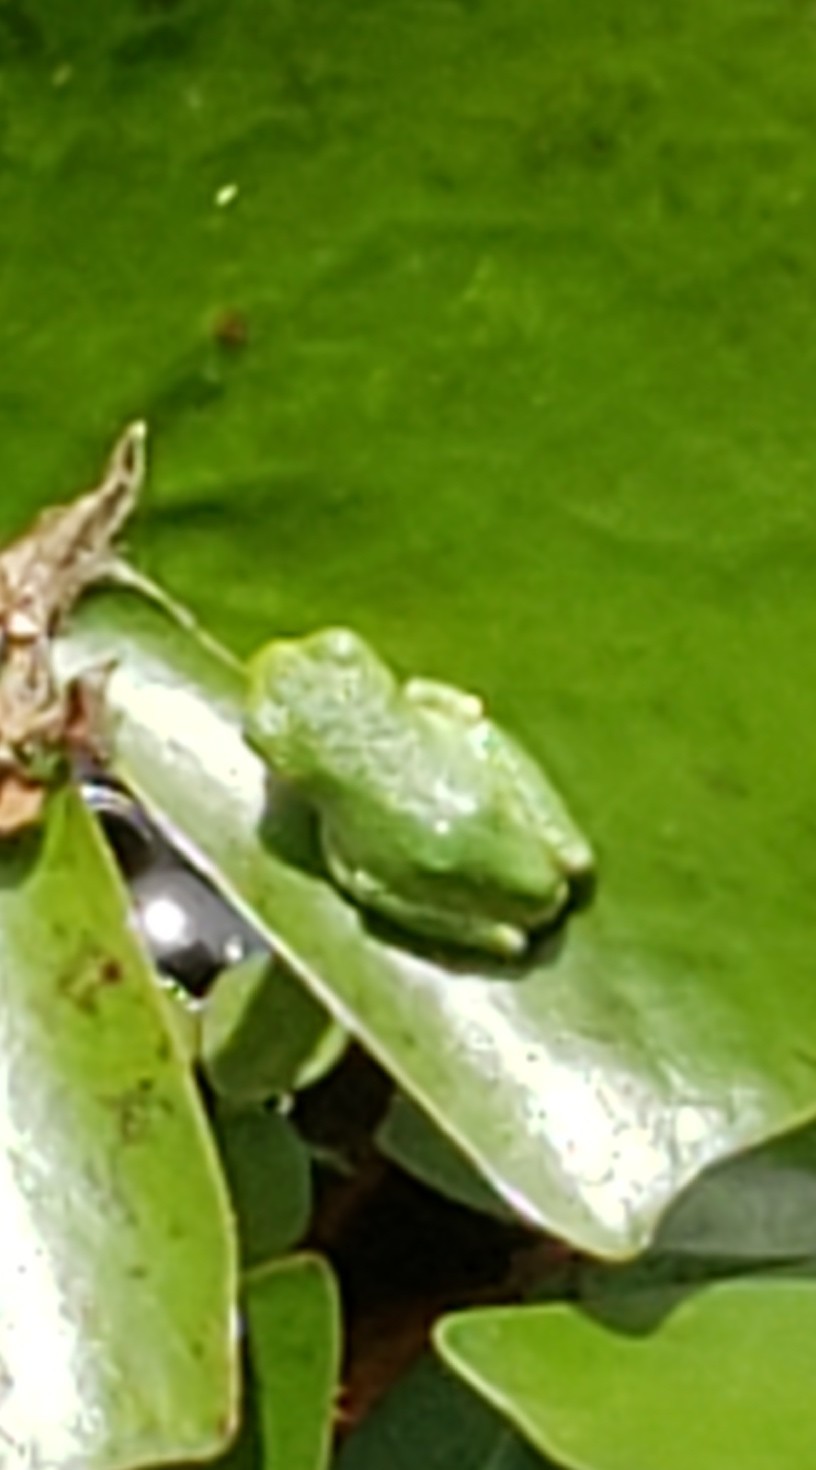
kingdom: Animalia
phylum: Chordata
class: Amphibia
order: Anura
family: Hylidae
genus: Dryophytes
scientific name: Dryophytes versicolor
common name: Gray treefrog
